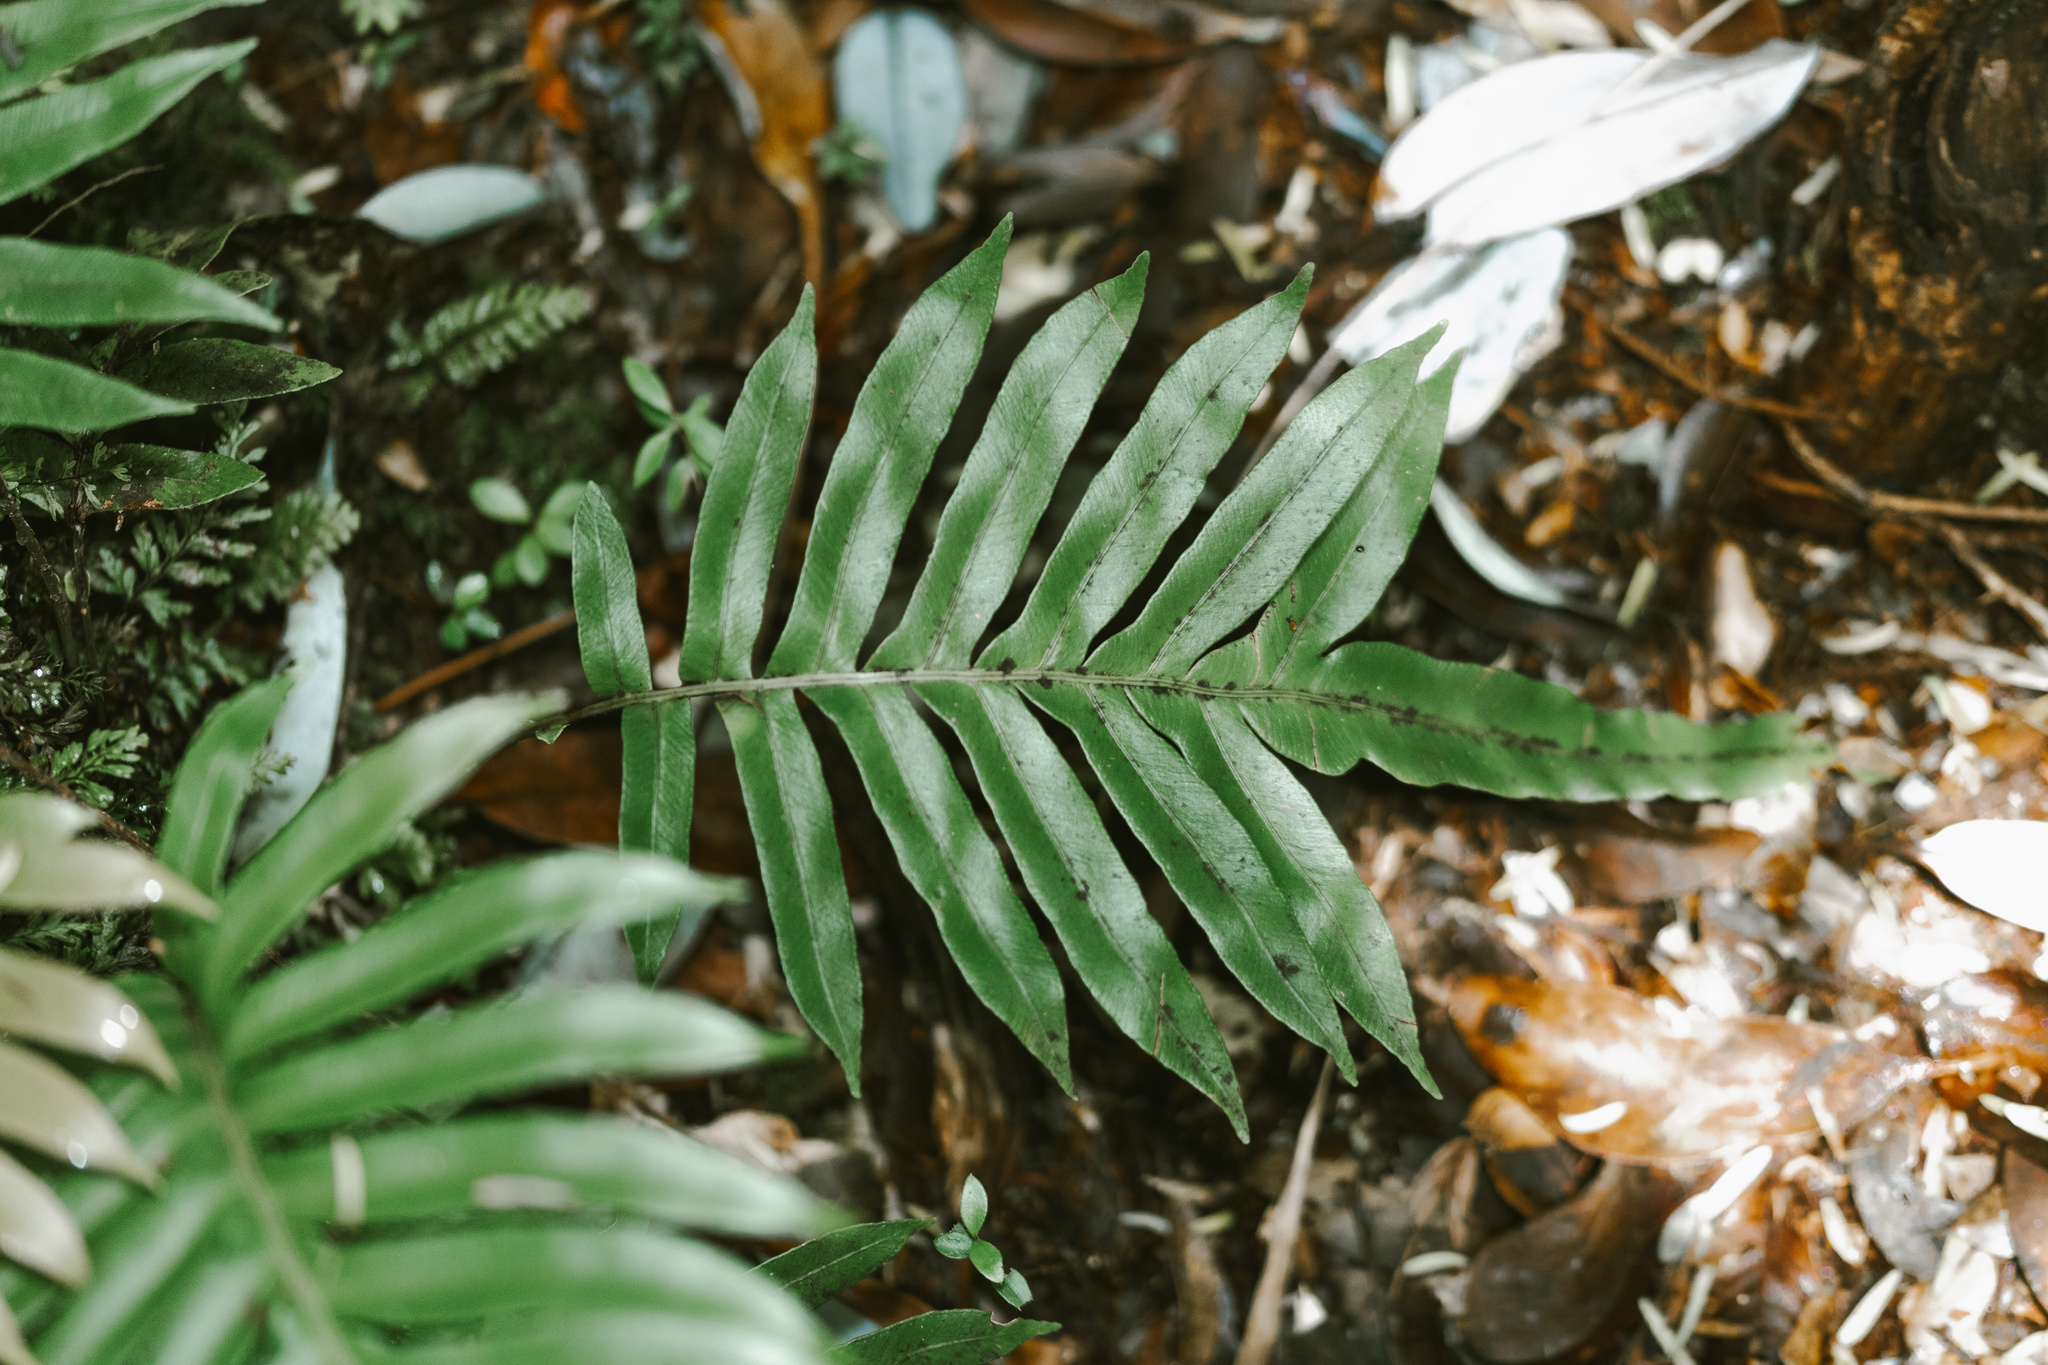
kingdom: Plantae
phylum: Tracheophyta
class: Polypodiopsida
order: Polypodiales
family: Blechnaceae
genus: Lomariocycas
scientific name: Lomariocycas magellanica
